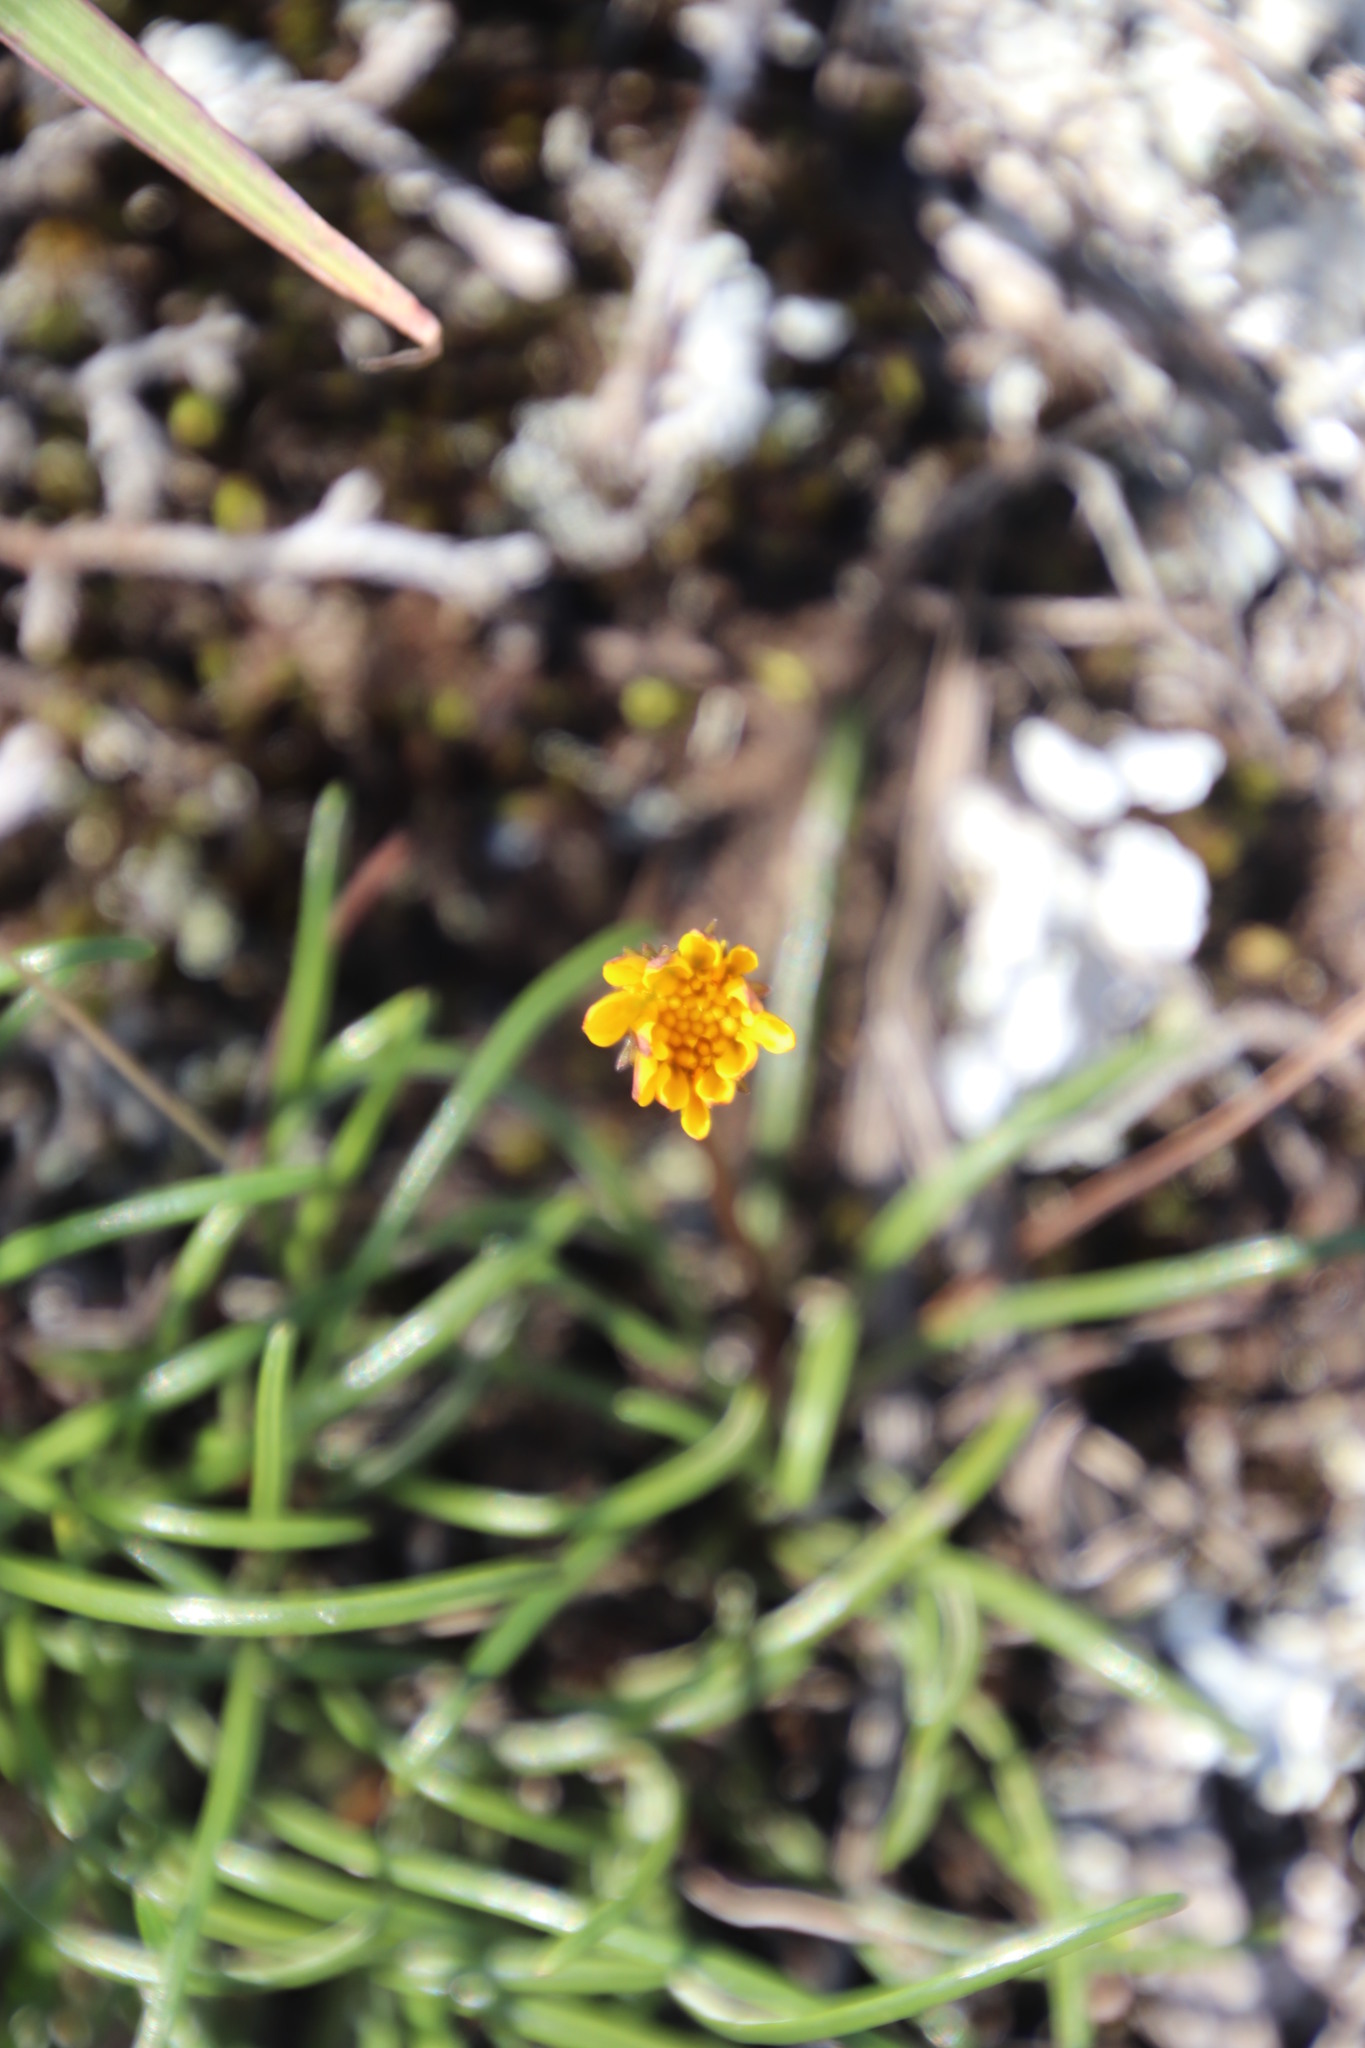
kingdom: Plantae
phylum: Tracheophyta
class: Magnoliopsida
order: Asterales
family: Asteraceae
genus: Gazania
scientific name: Gazania linearis
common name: Treasureflower
